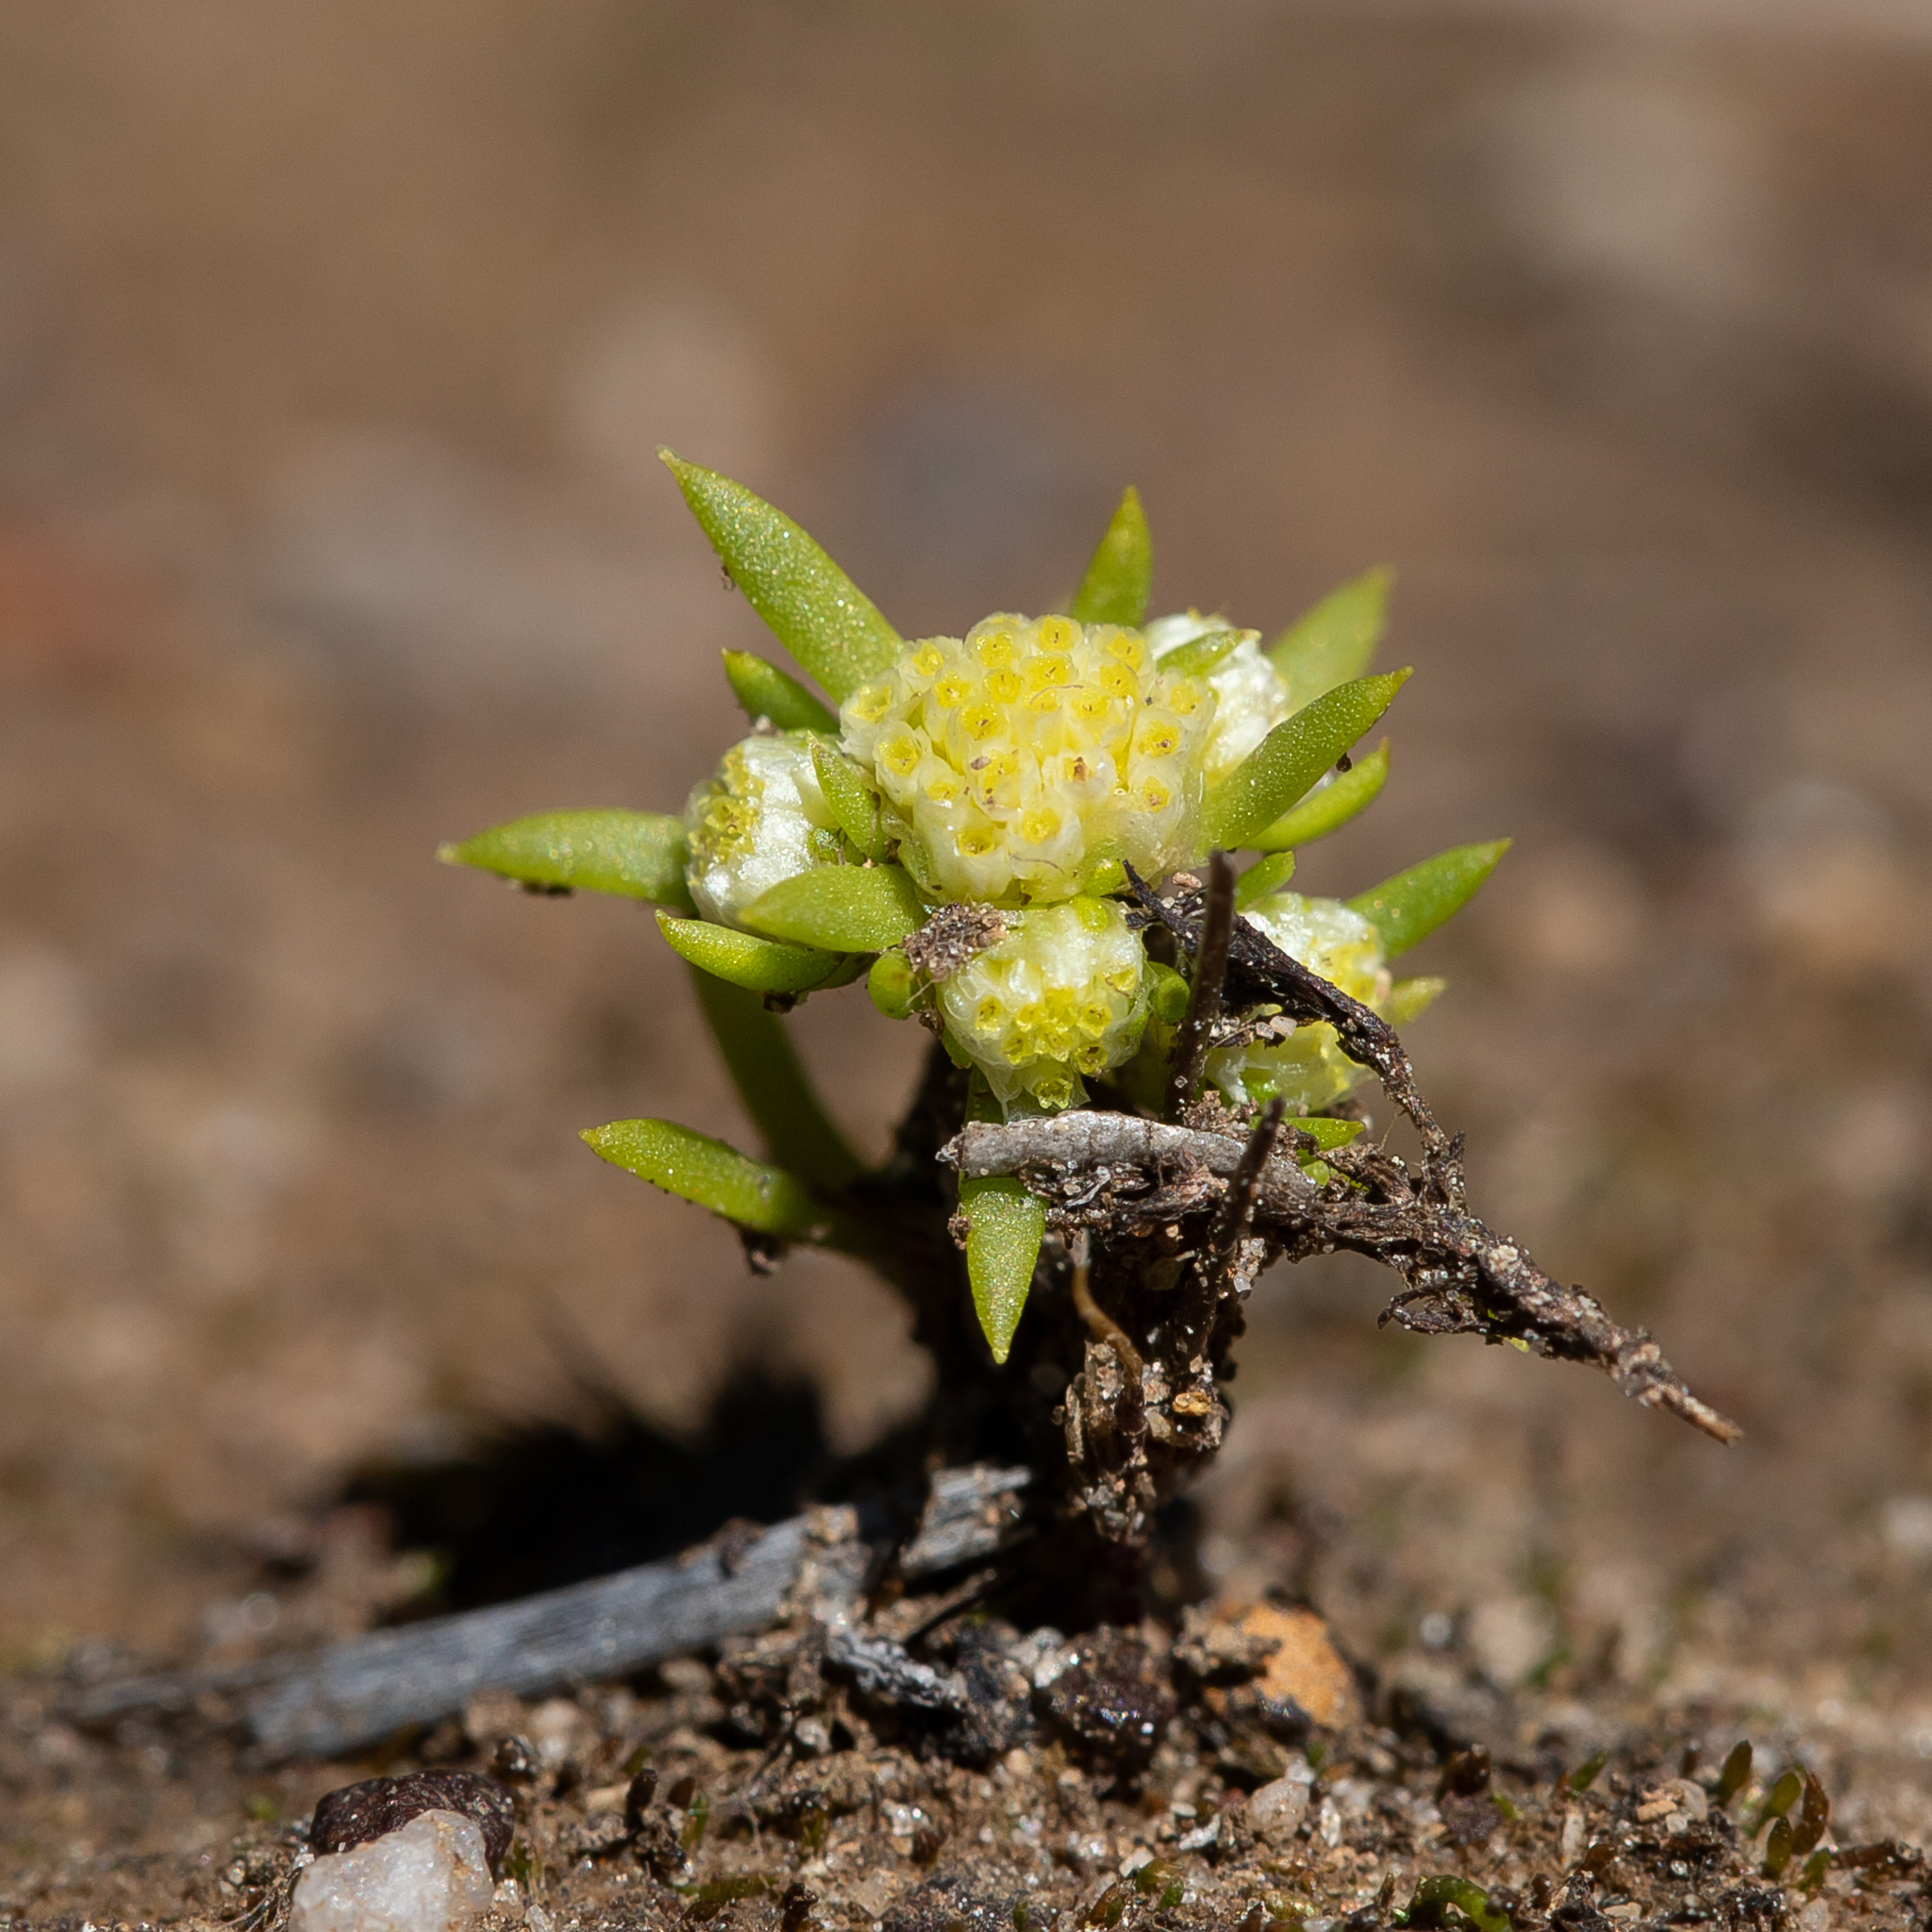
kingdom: Plantae
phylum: Tracheophyta
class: Magnoliopsida
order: Asterales
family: Asteraceae
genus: Siloxerus
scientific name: Siloxerus multiflorus
